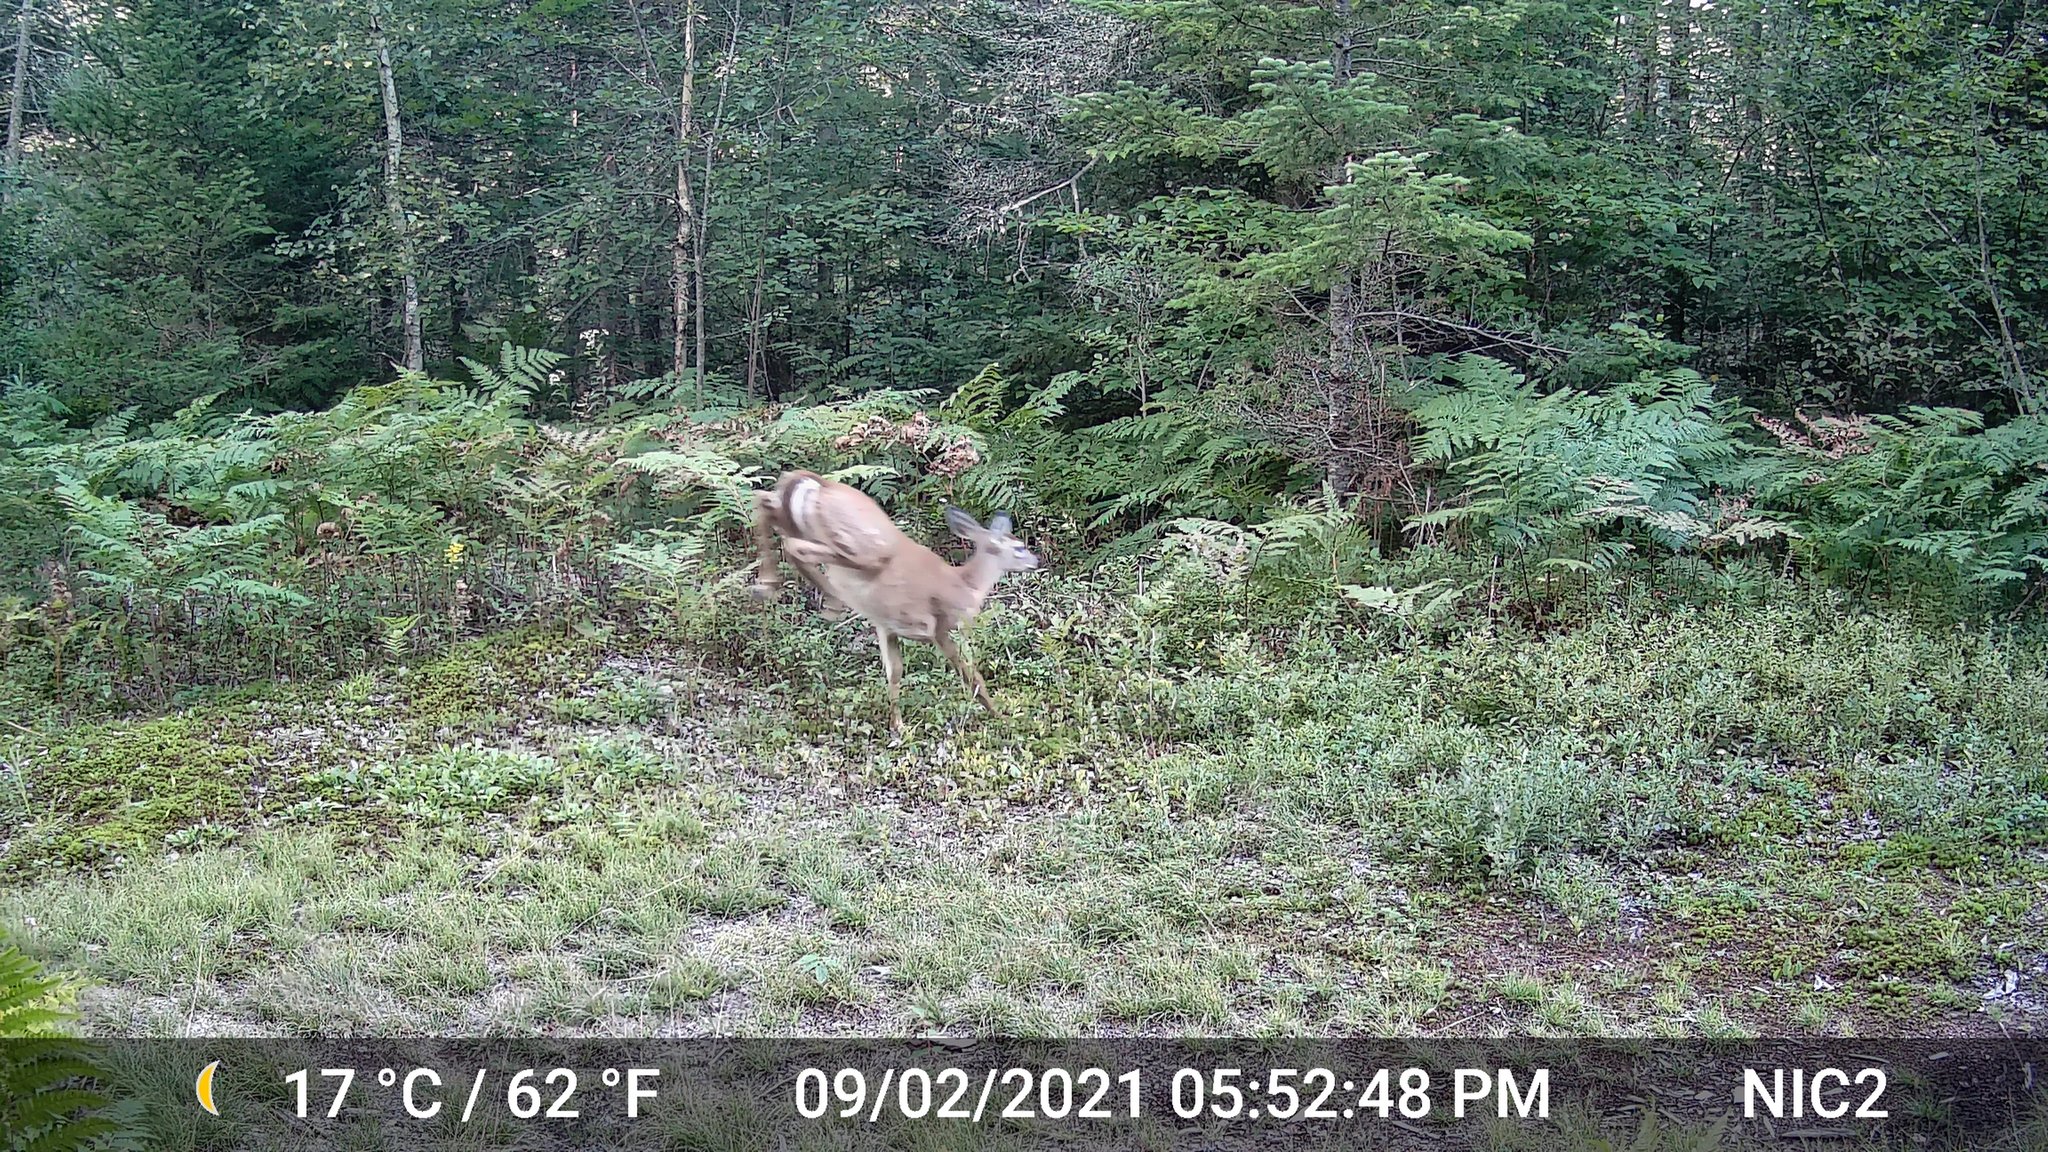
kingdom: Animalia
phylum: Chordata
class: Mammalia
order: Artiodactyla
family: Cervidae
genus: Odocoileus
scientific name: Odocoileus virginianus
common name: White-tailed deer
